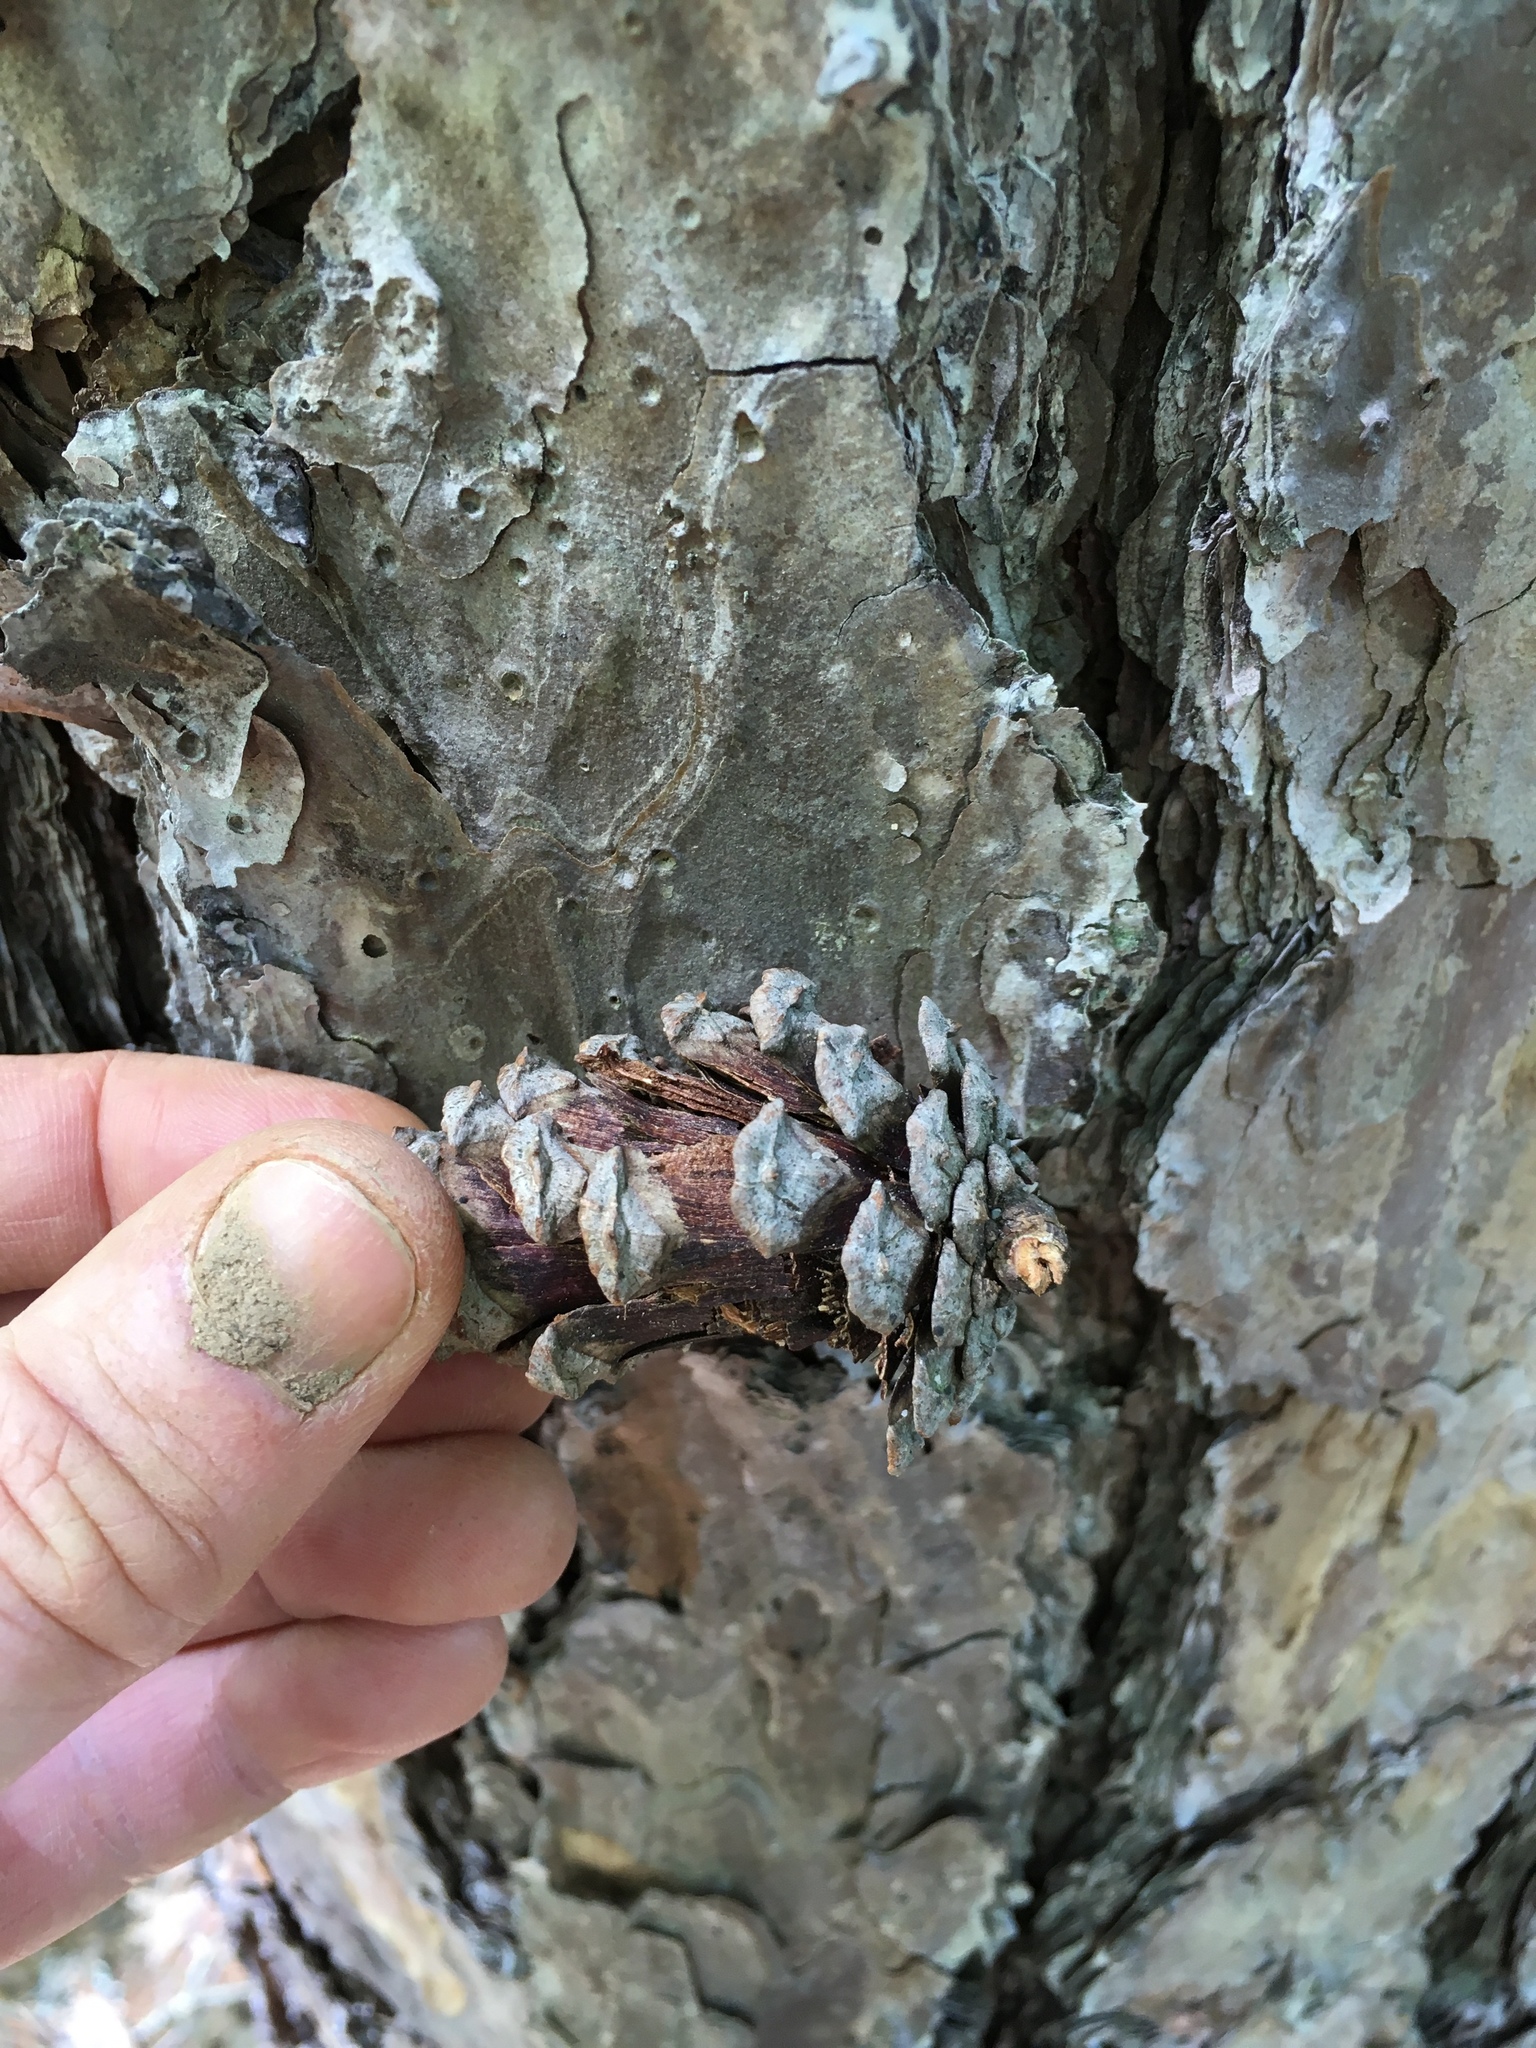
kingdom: Plantae
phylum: Tracheophyta
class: Pinopsida
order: Pinales
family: Pinaceae
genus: Pinus
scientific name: Pinus echinata
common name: Shortleaf pine
